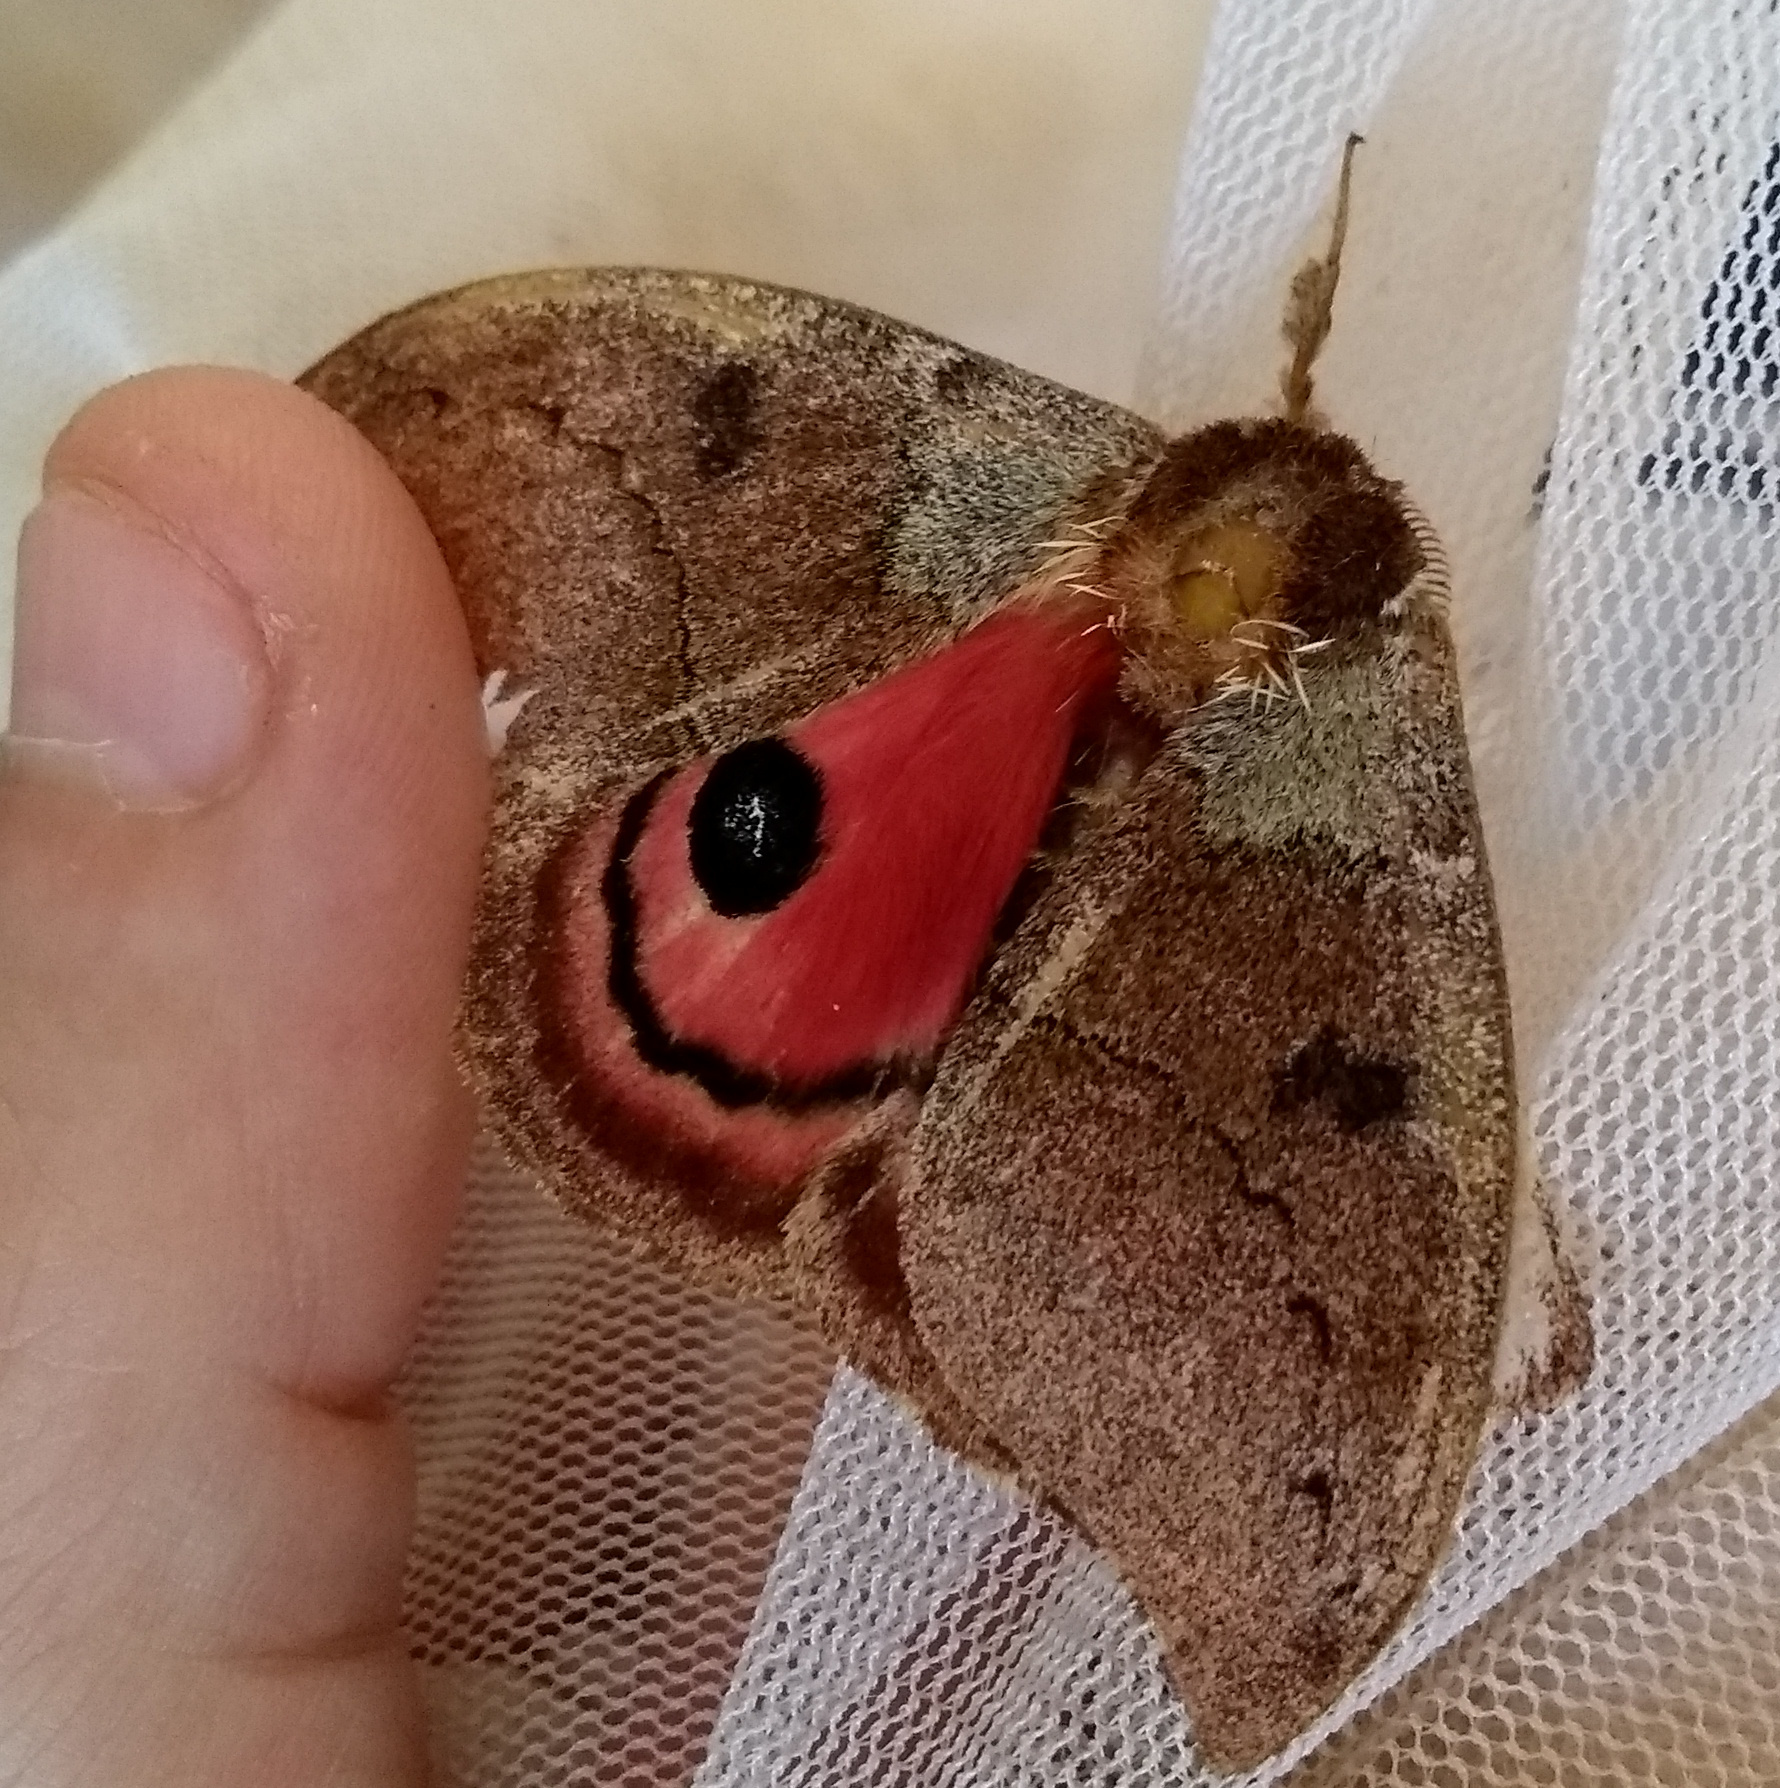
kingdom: Animalia
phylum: Arthropoda
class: Insecta
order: Lepidoptera
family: Saturniidae
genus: Automerella
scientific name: Automerella flexuosa
